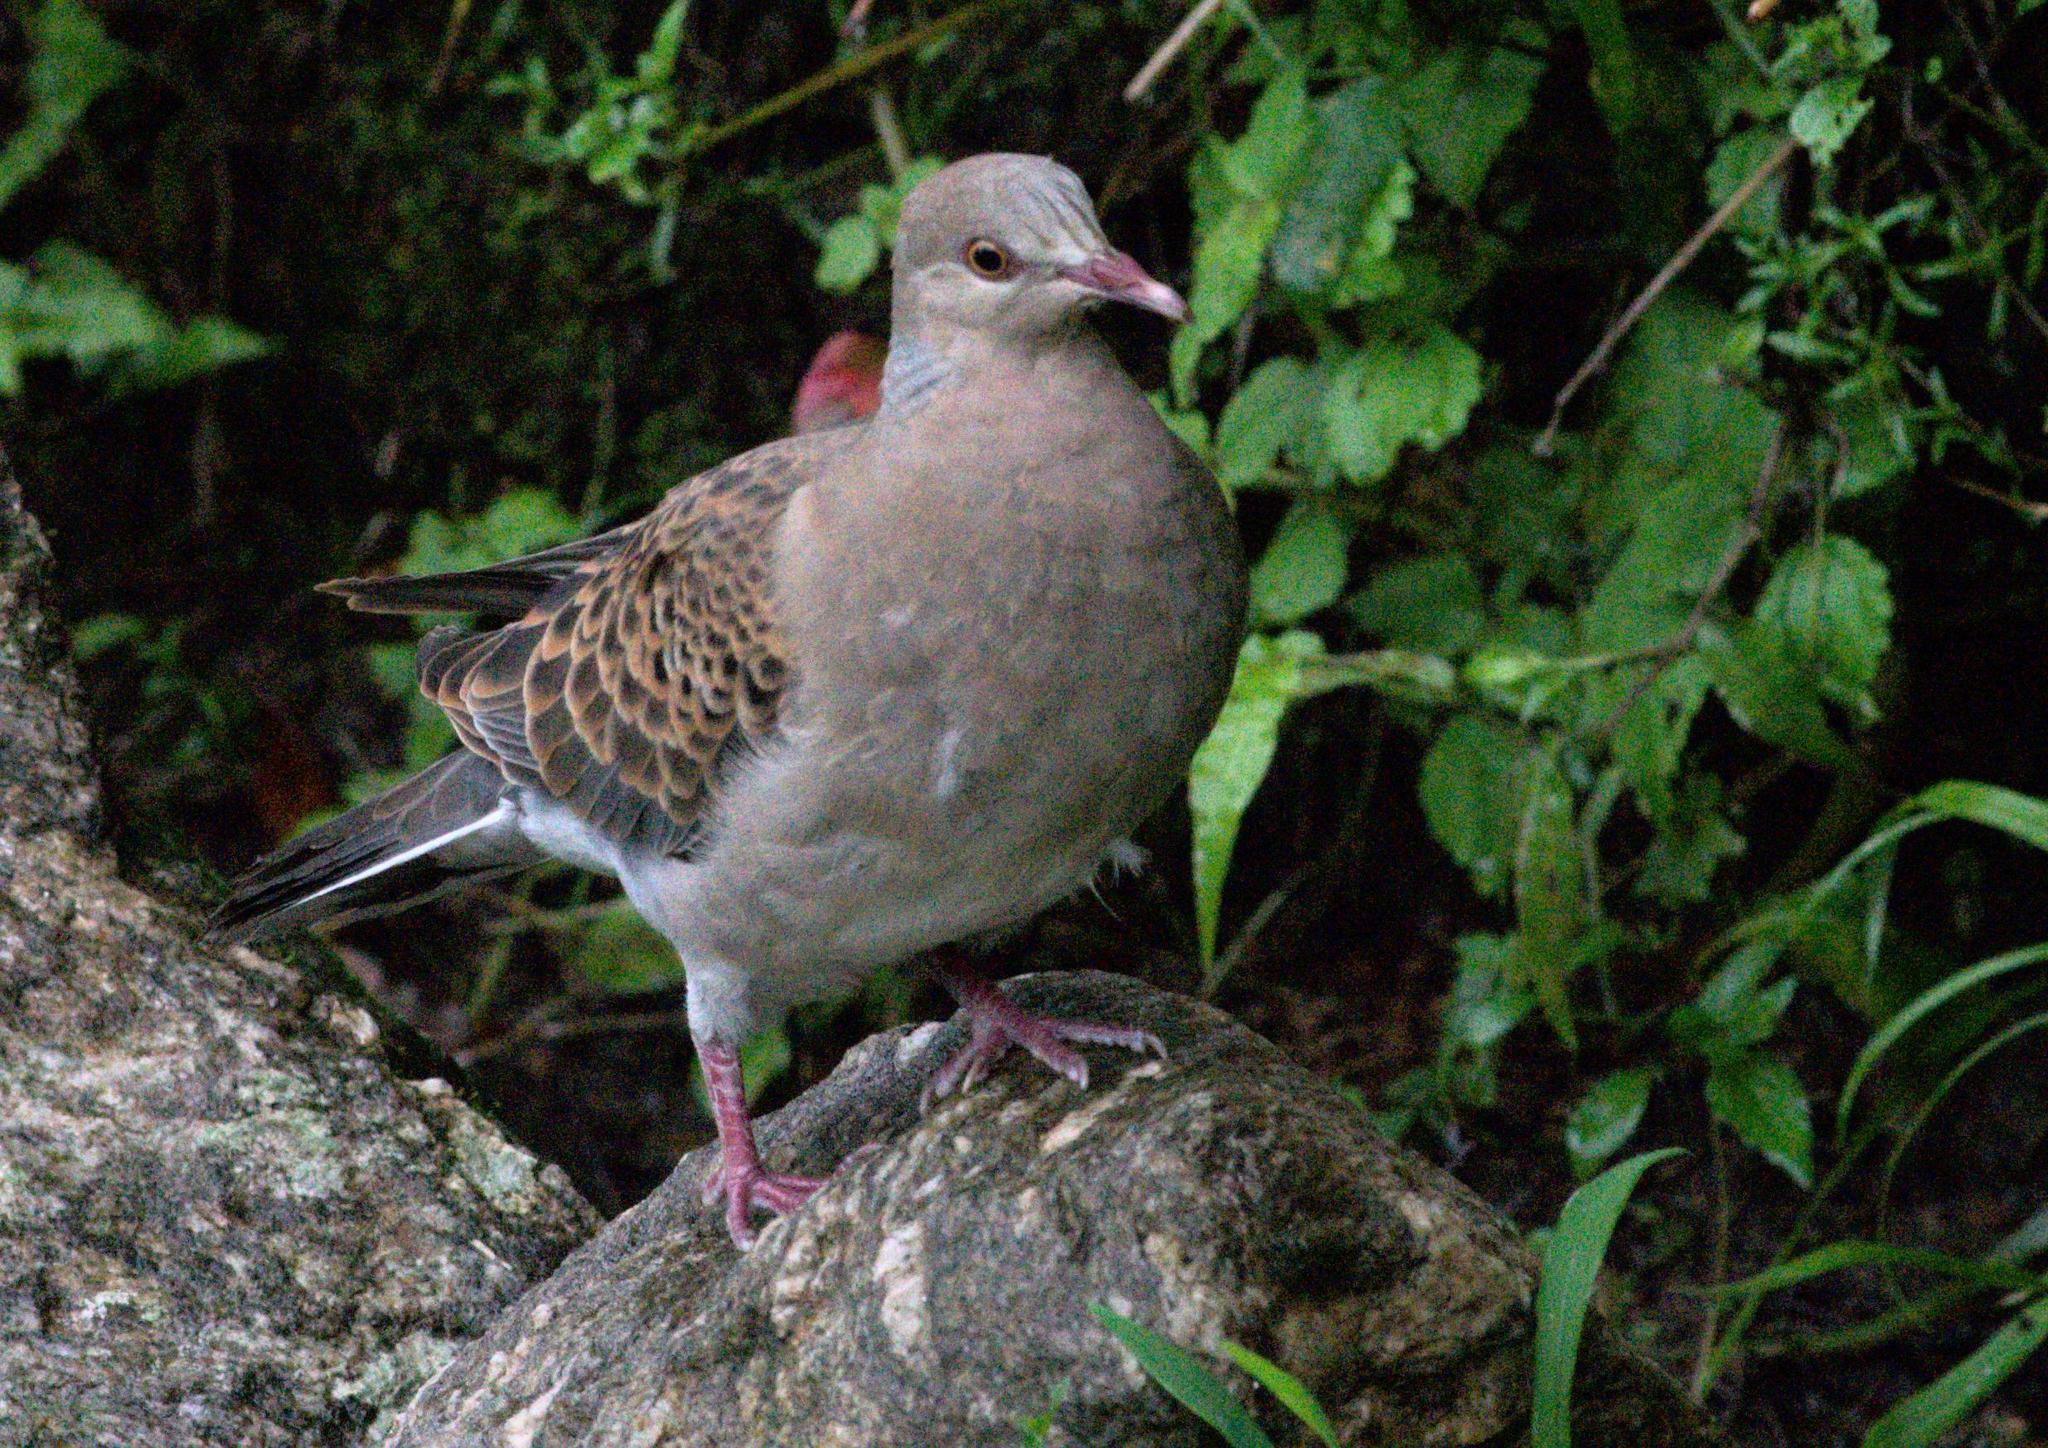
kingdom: Animalia
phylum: Chordata
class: Aves
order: Columbiformes
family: Columbidae
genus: Streptopelia
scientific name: Streptopelia orientalis
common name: Oriental turtle dove
